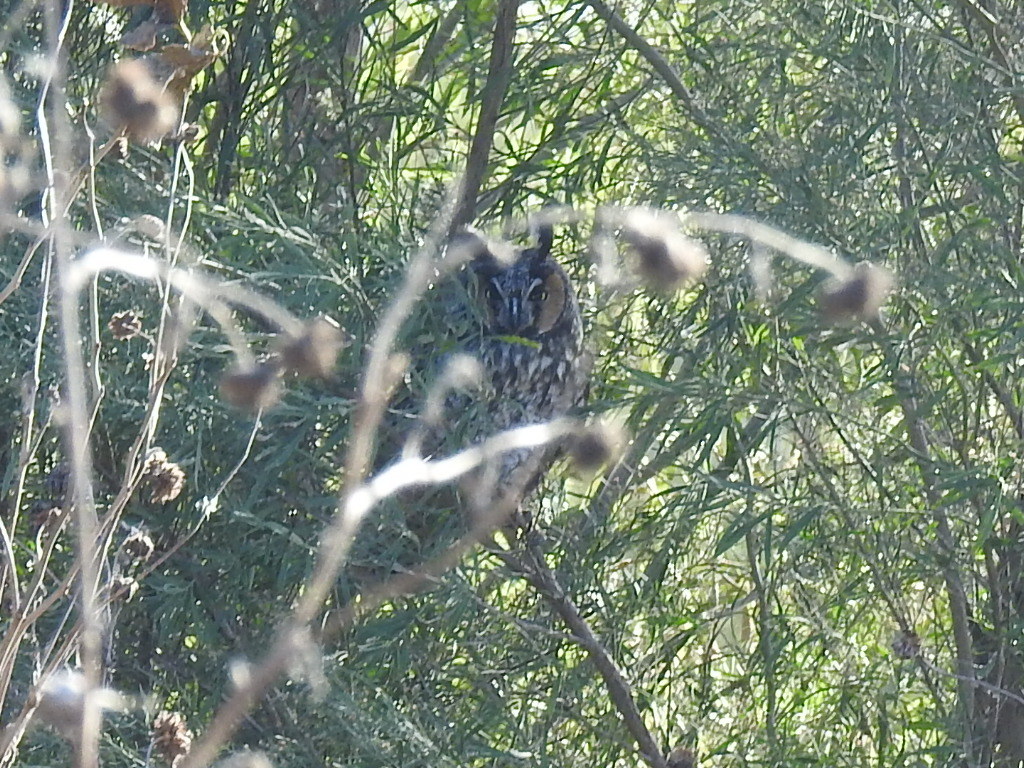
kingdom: Animalia
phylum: Chordata
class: Aves
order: Strigiformes
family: Strigidae
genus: Asio
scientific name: Asio otus
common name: Long-eared owl
